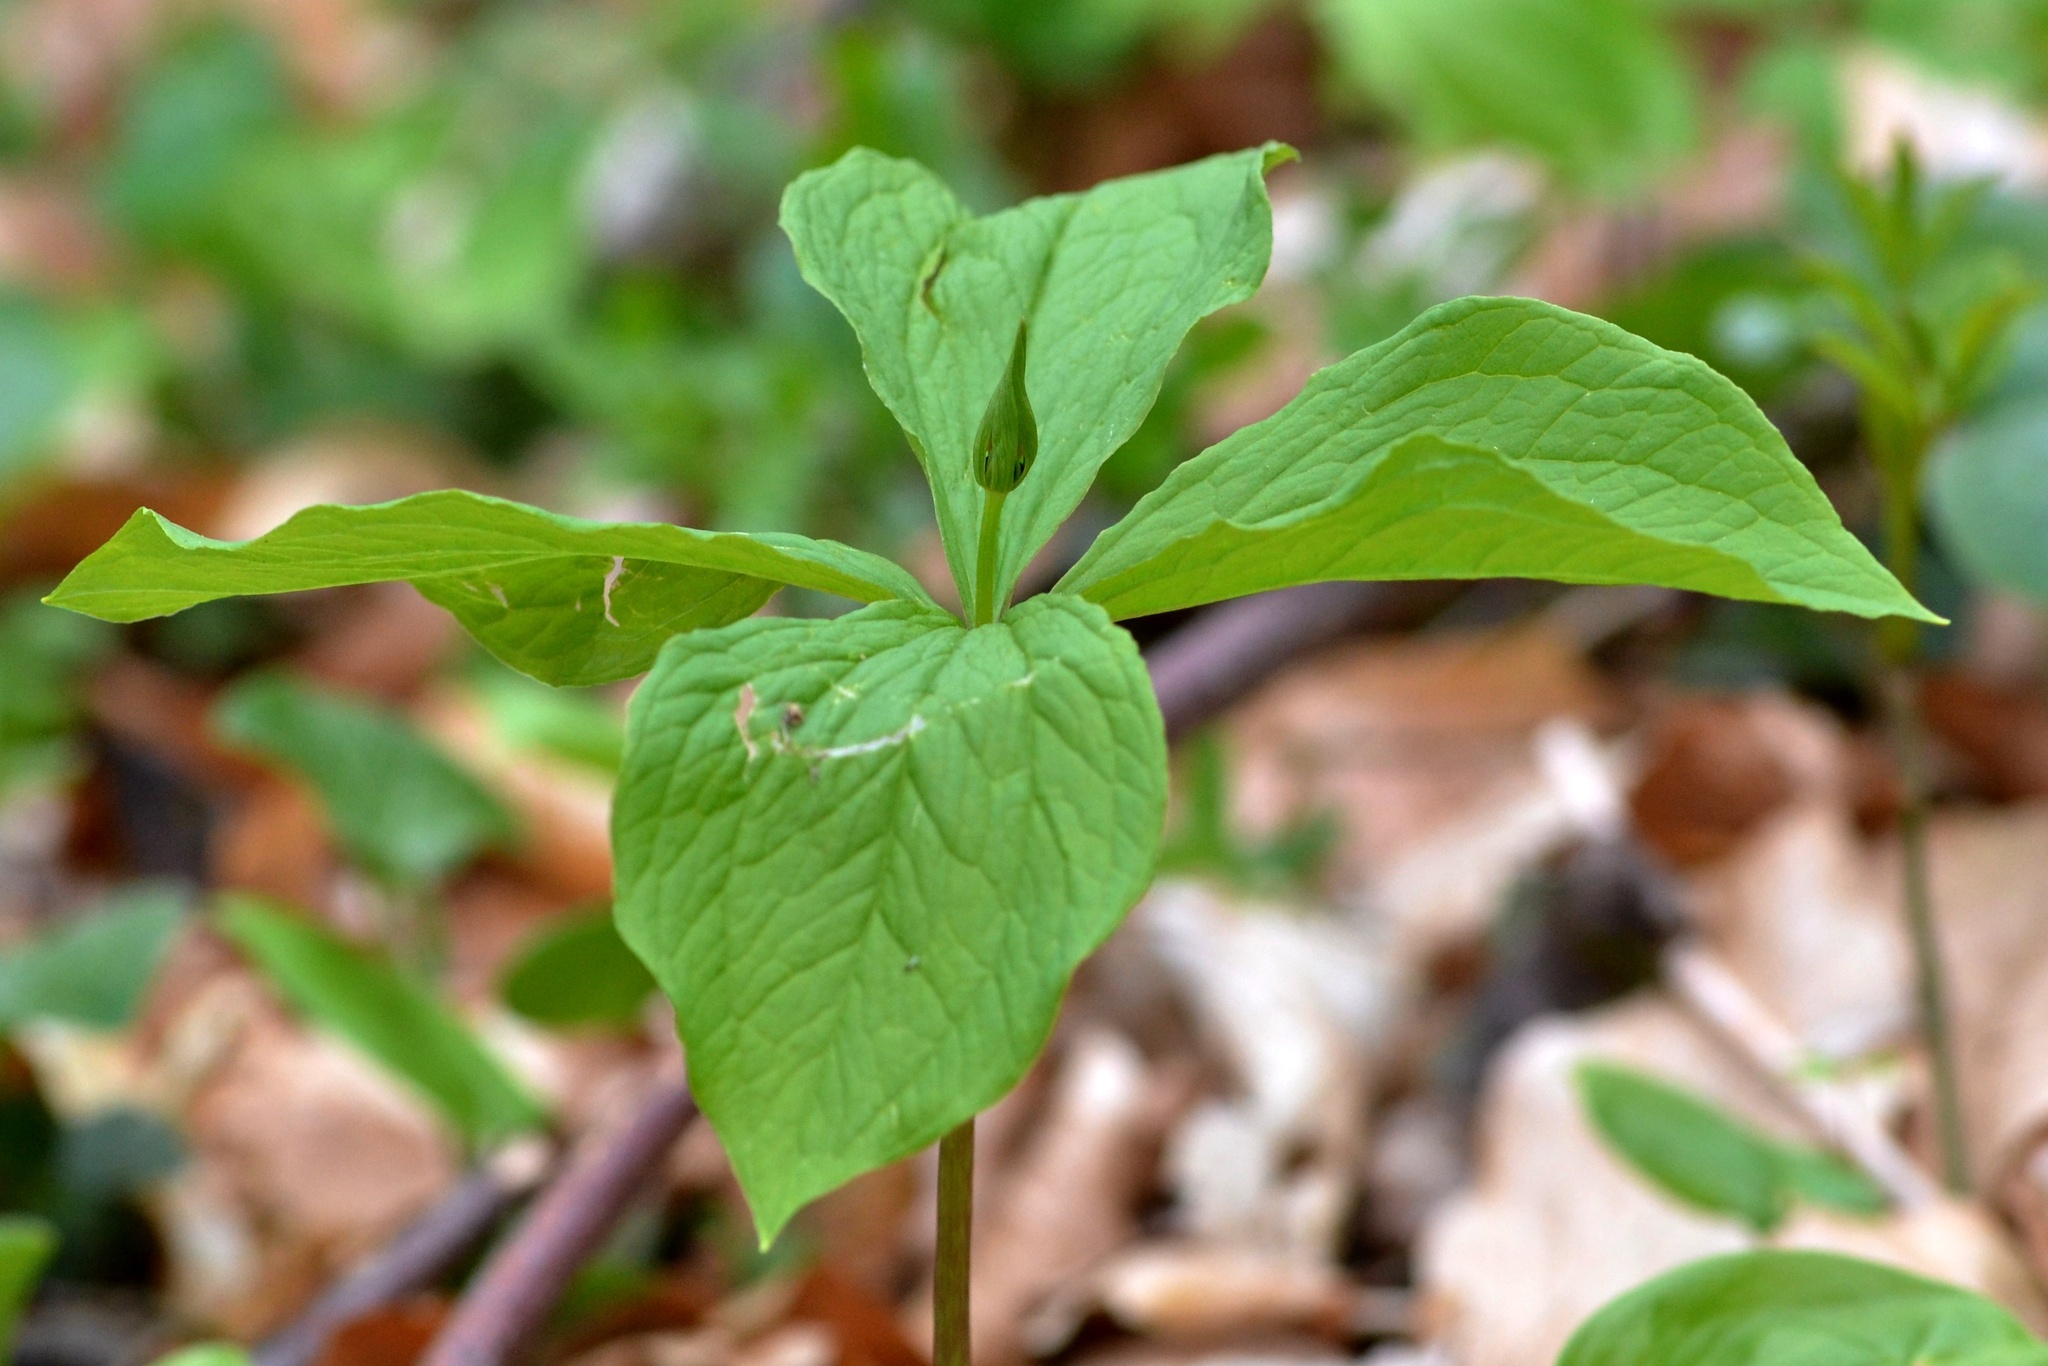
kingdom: Plantae
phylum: Tracheophyta
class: Liliopsida
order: Liliales
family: Melanthiaceae
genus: Paris
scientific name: Paris quadrifolia
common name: Herb-paris
